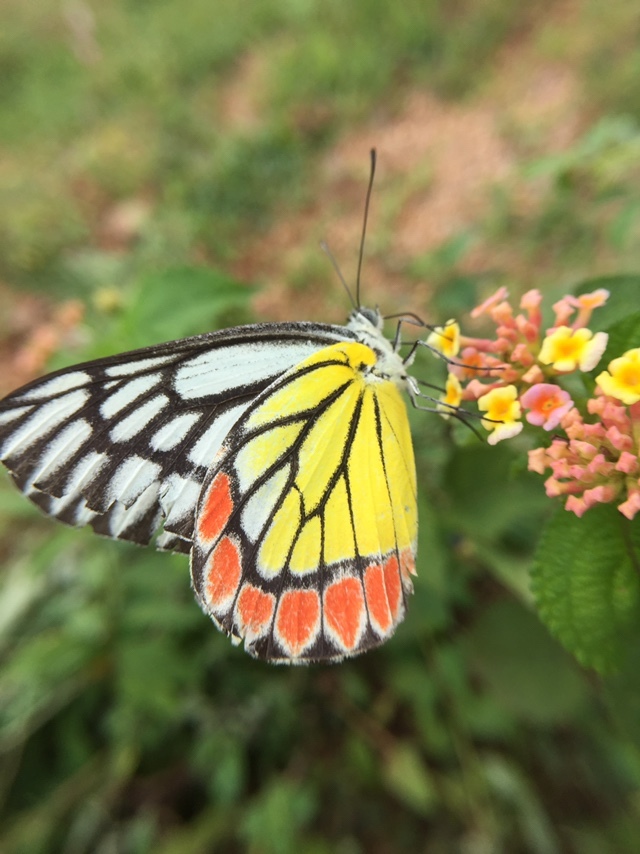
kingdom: Animalia
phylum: Arthropoda
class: Insecta
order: Lepidoptera
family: Pieridae
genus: Delias
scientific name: Delias eucharis
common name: Common jezebel
